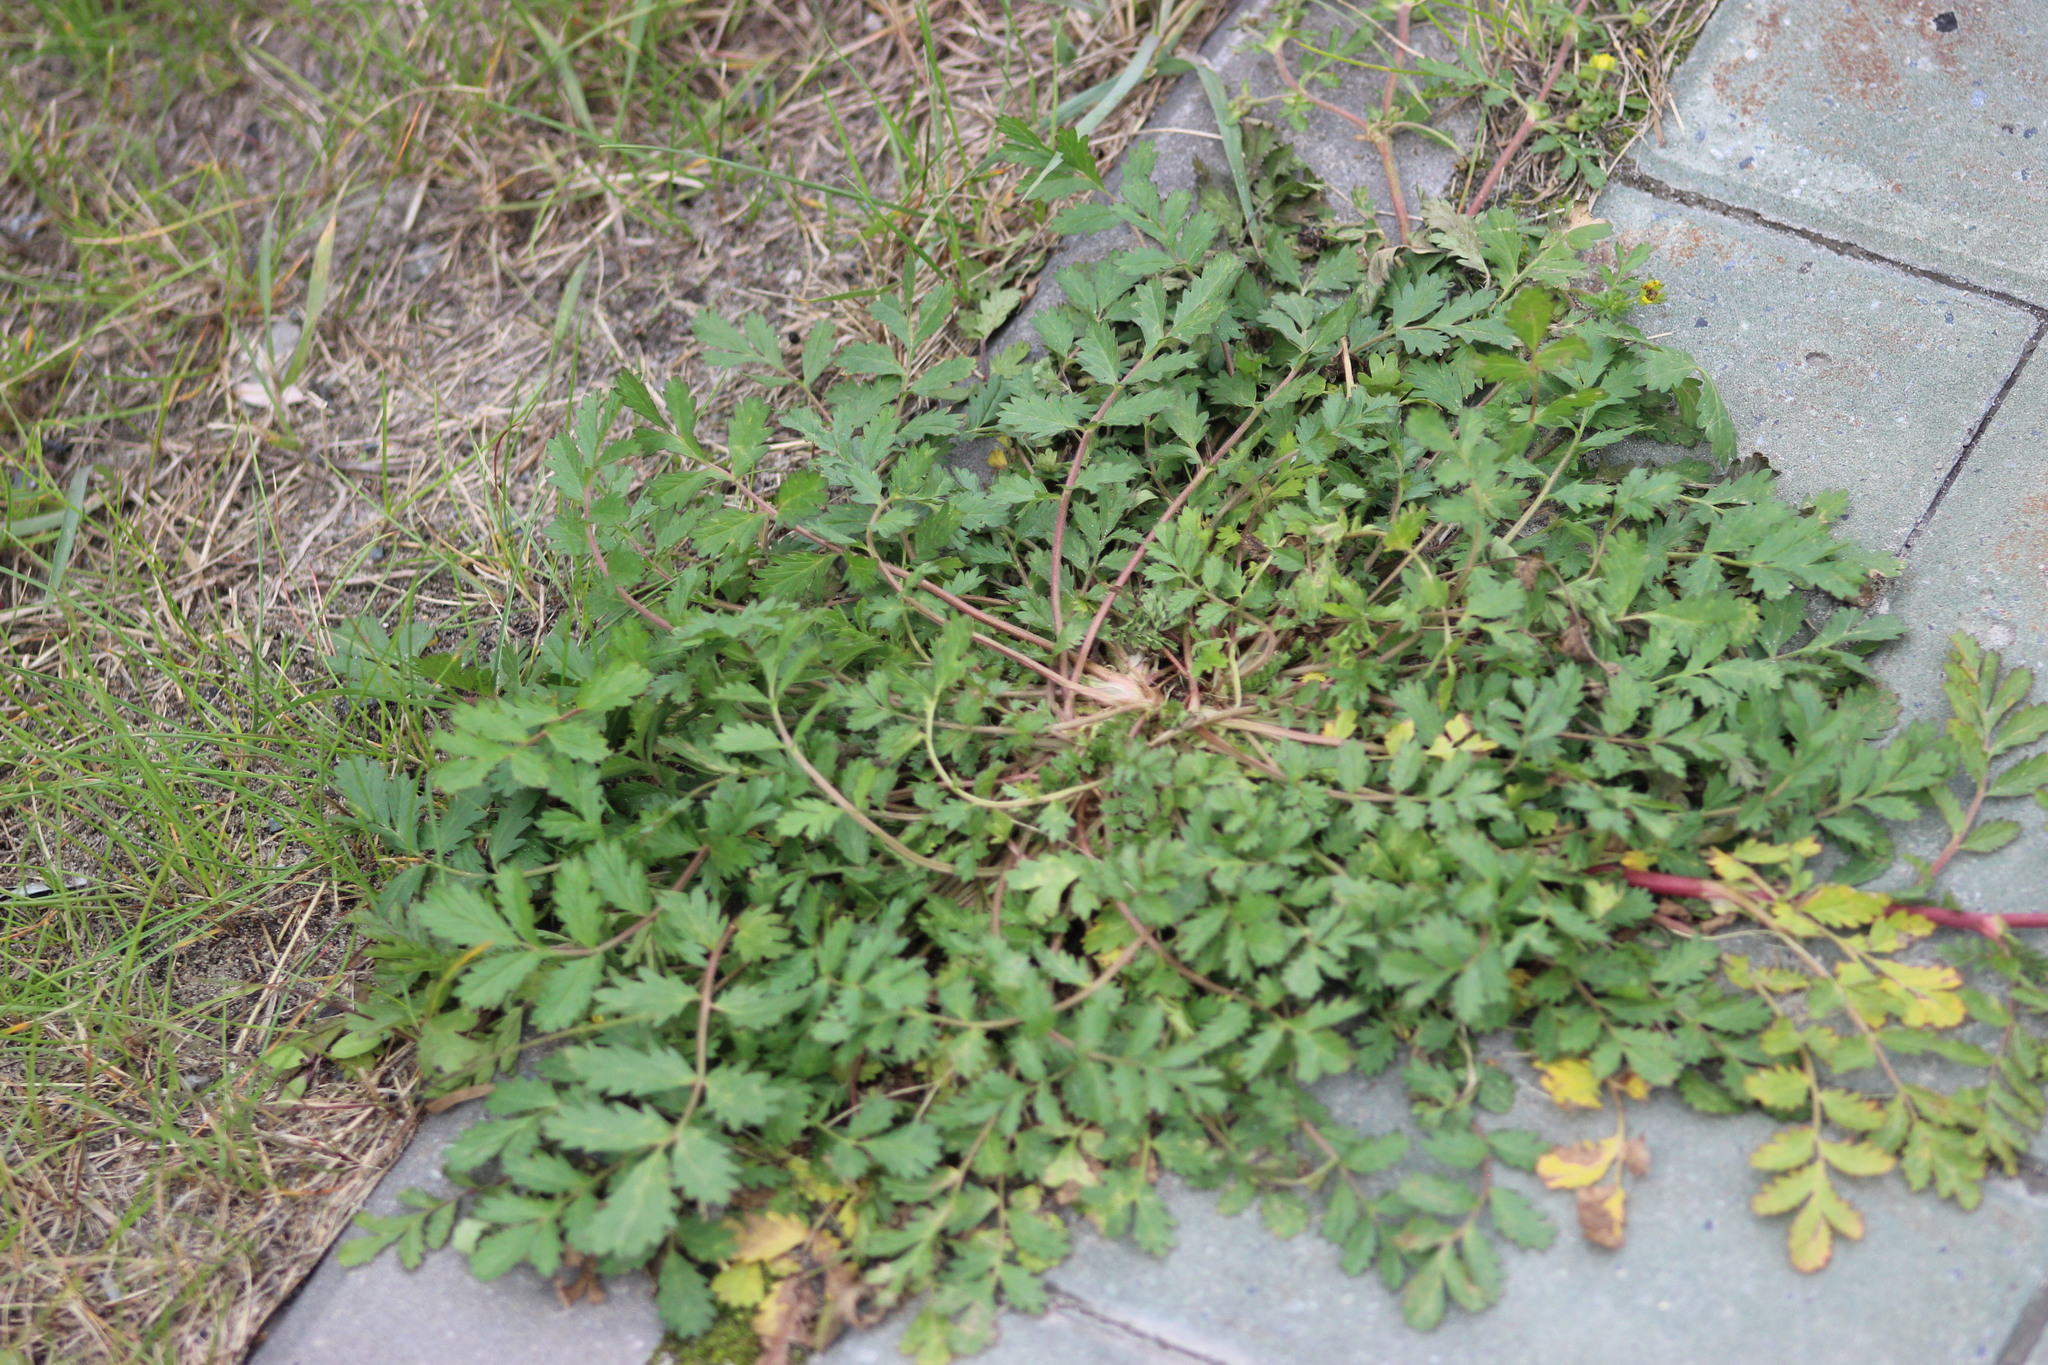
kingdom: Plantae
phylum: Tracheophyta
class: Magnoliopsida
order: Rosales
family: Rosaceae
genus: Potentilla
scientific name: Potentilla supina
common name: Prostrate cinquefoil
